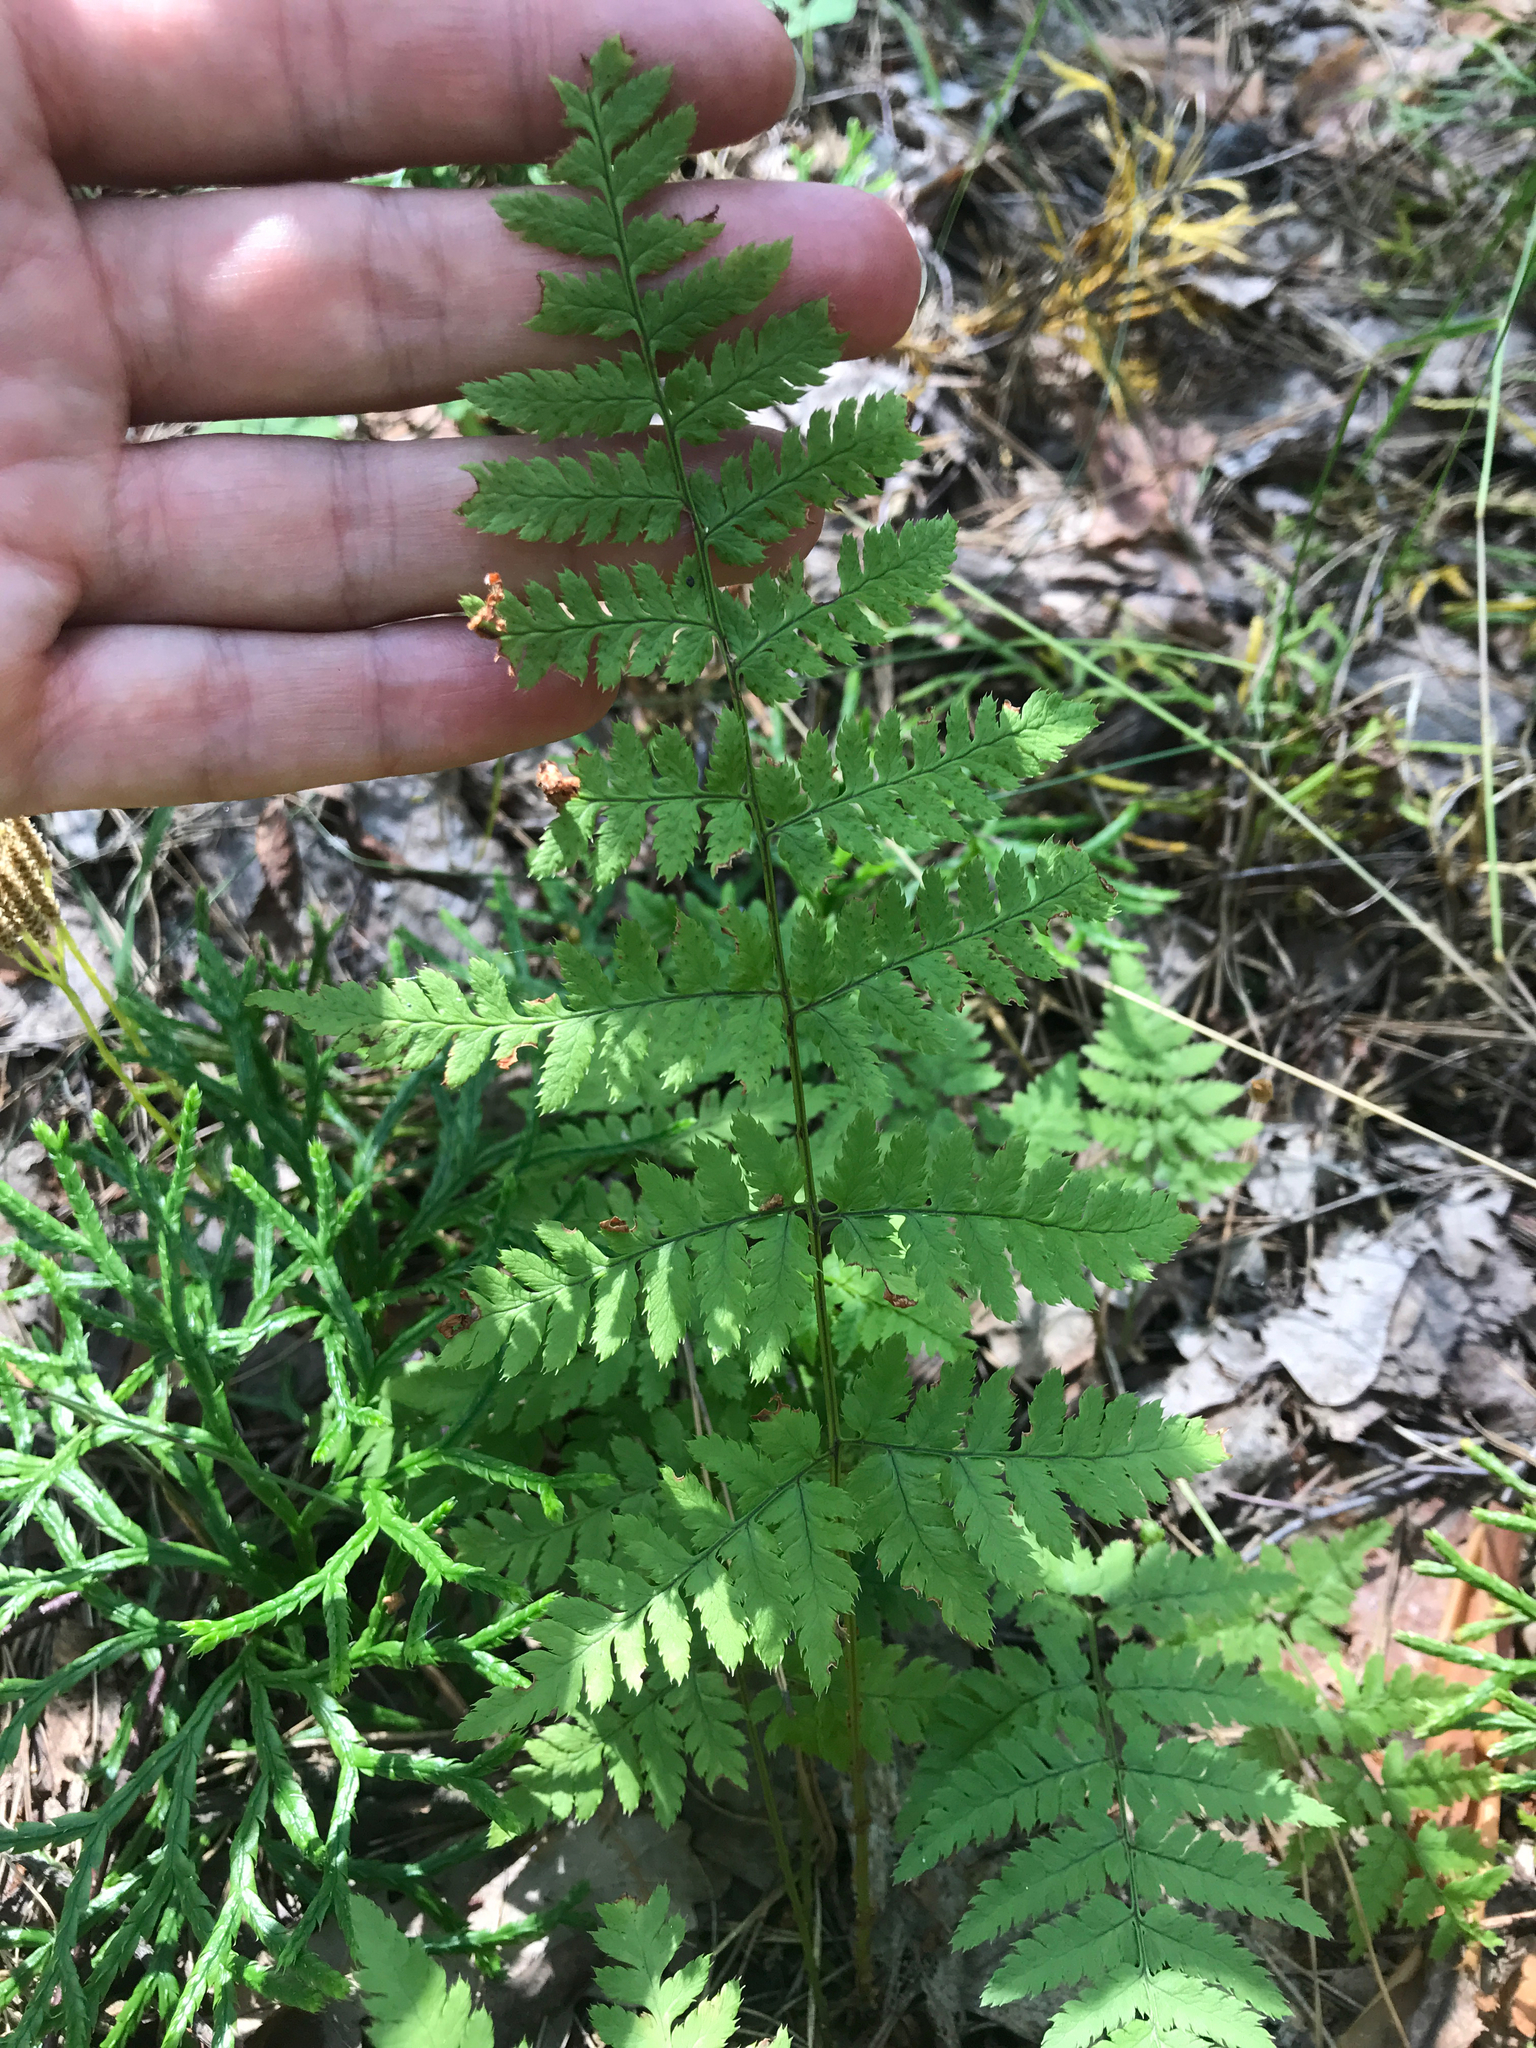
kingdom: Plantae
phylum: Tracheophyta
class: Polypodiopsida
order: Polypodiales
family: Dryopteridaceae
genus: Dryopteris
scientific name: Dryopteris carthusiana
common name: Narrow buckler-fern
